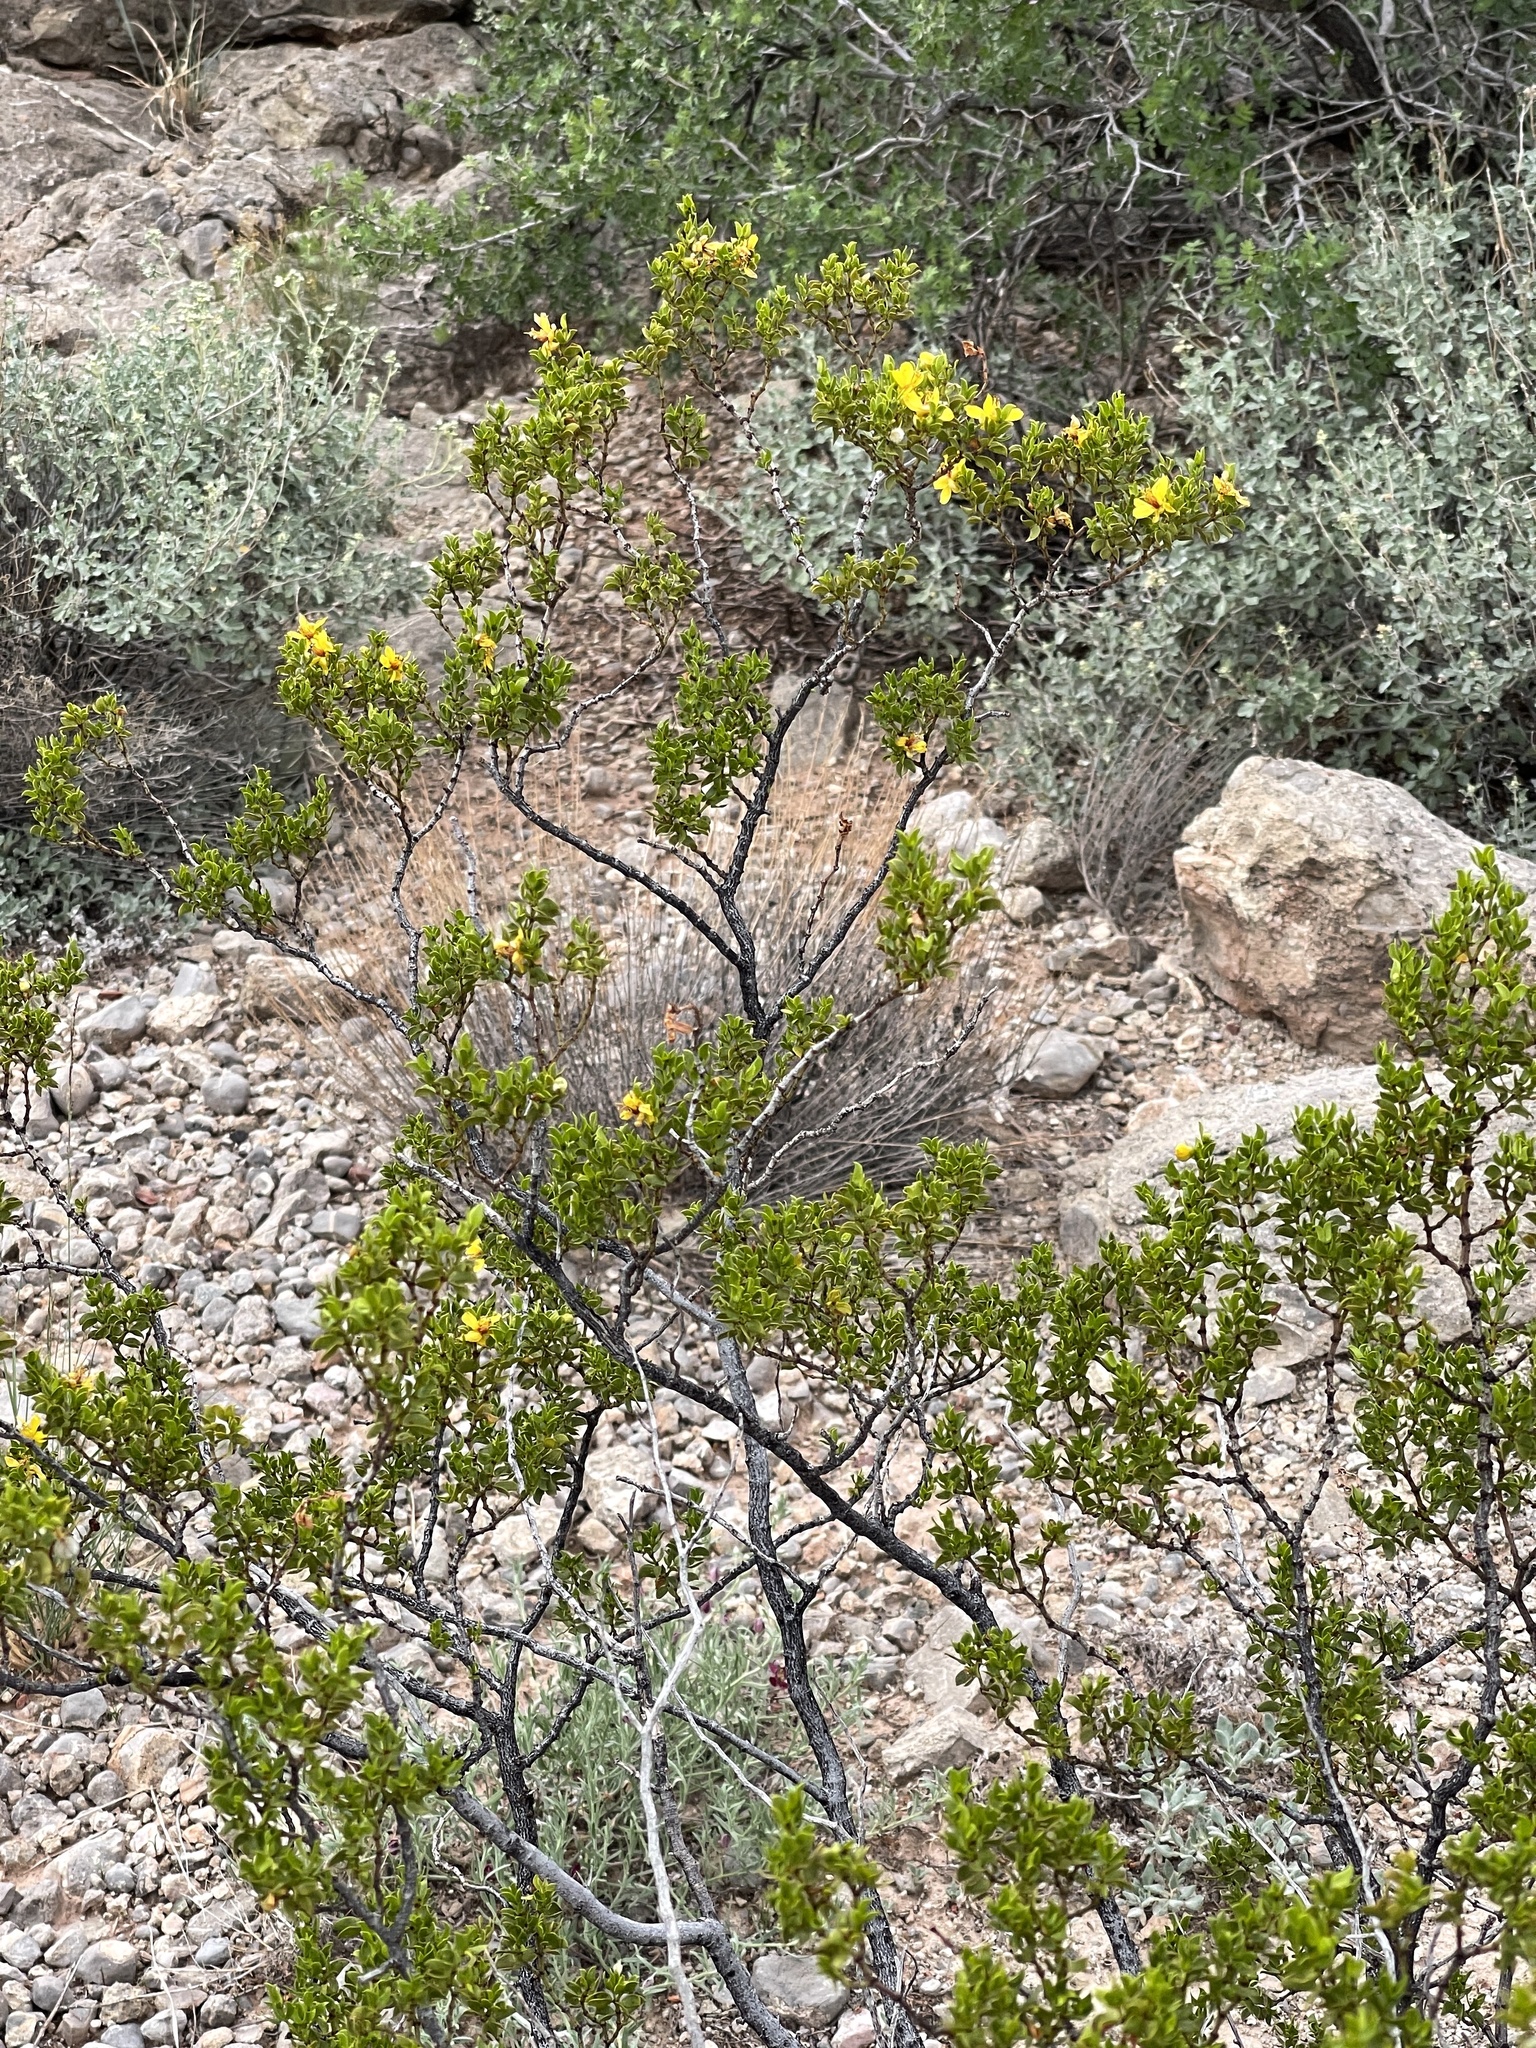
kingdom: Plantae
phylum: Tracheophyta
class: Magnoliopsida
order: Zygophyllales
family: Zygophyllaceae
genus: Larrea
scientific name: Larrea tridentata
